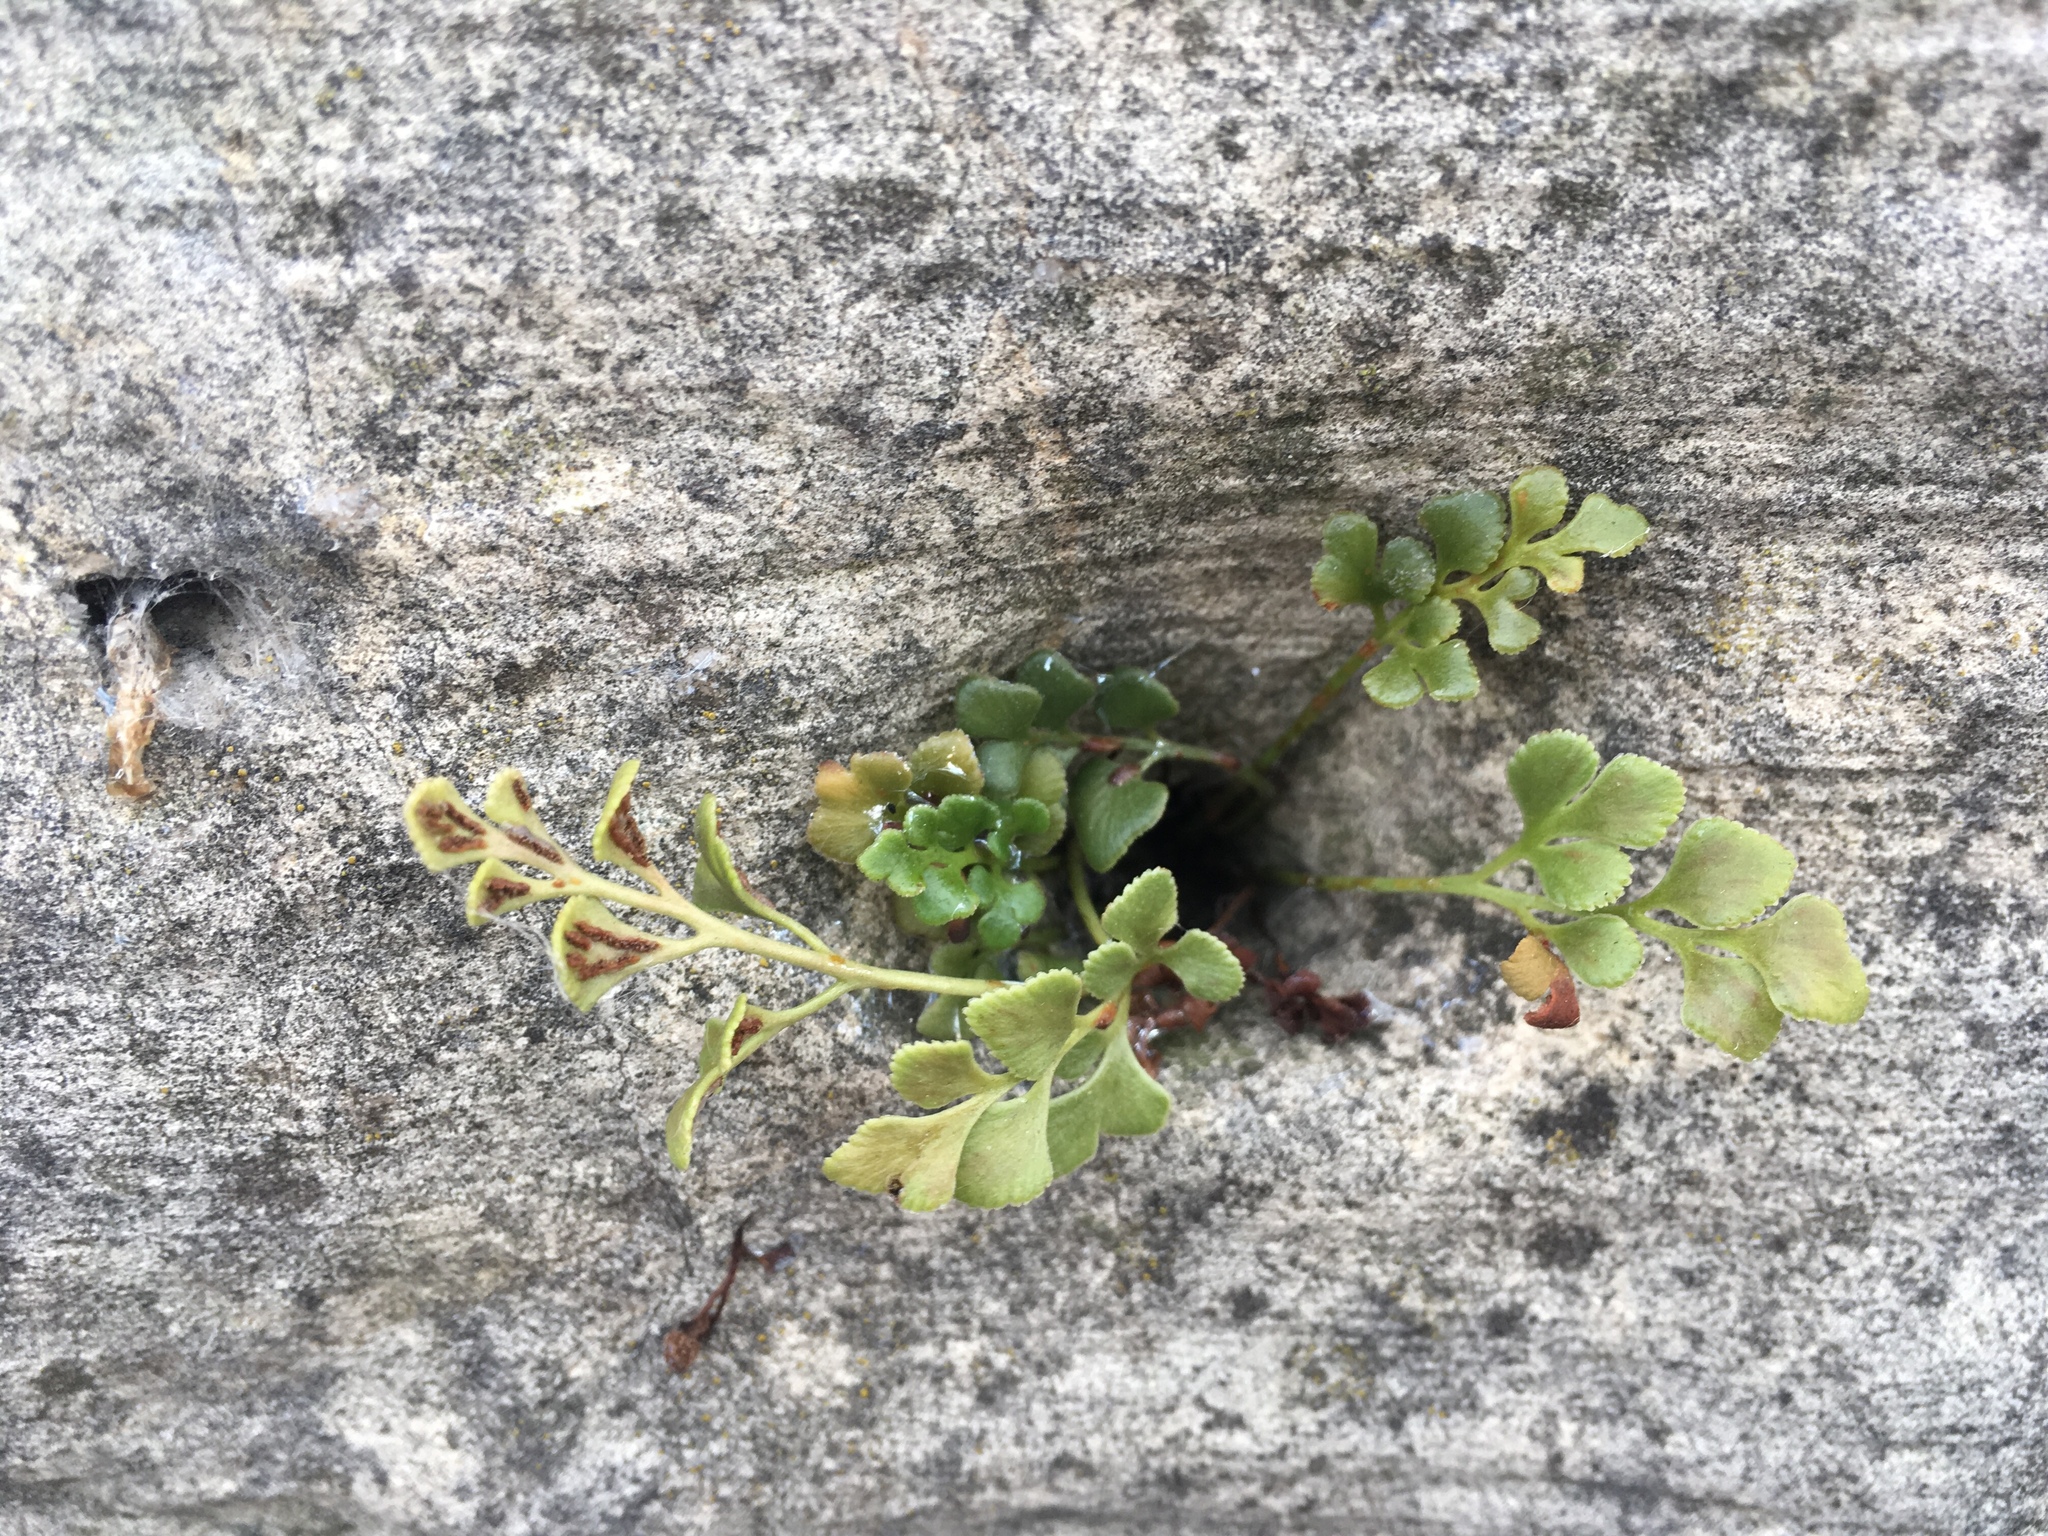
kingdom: Plantae
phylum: Tracheophyta
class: Polypodiopsida
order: Polypodiales
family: Aspleniaceae
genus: Asplenium
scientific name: Asplenium ruta-muraria
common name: Wall-rue
